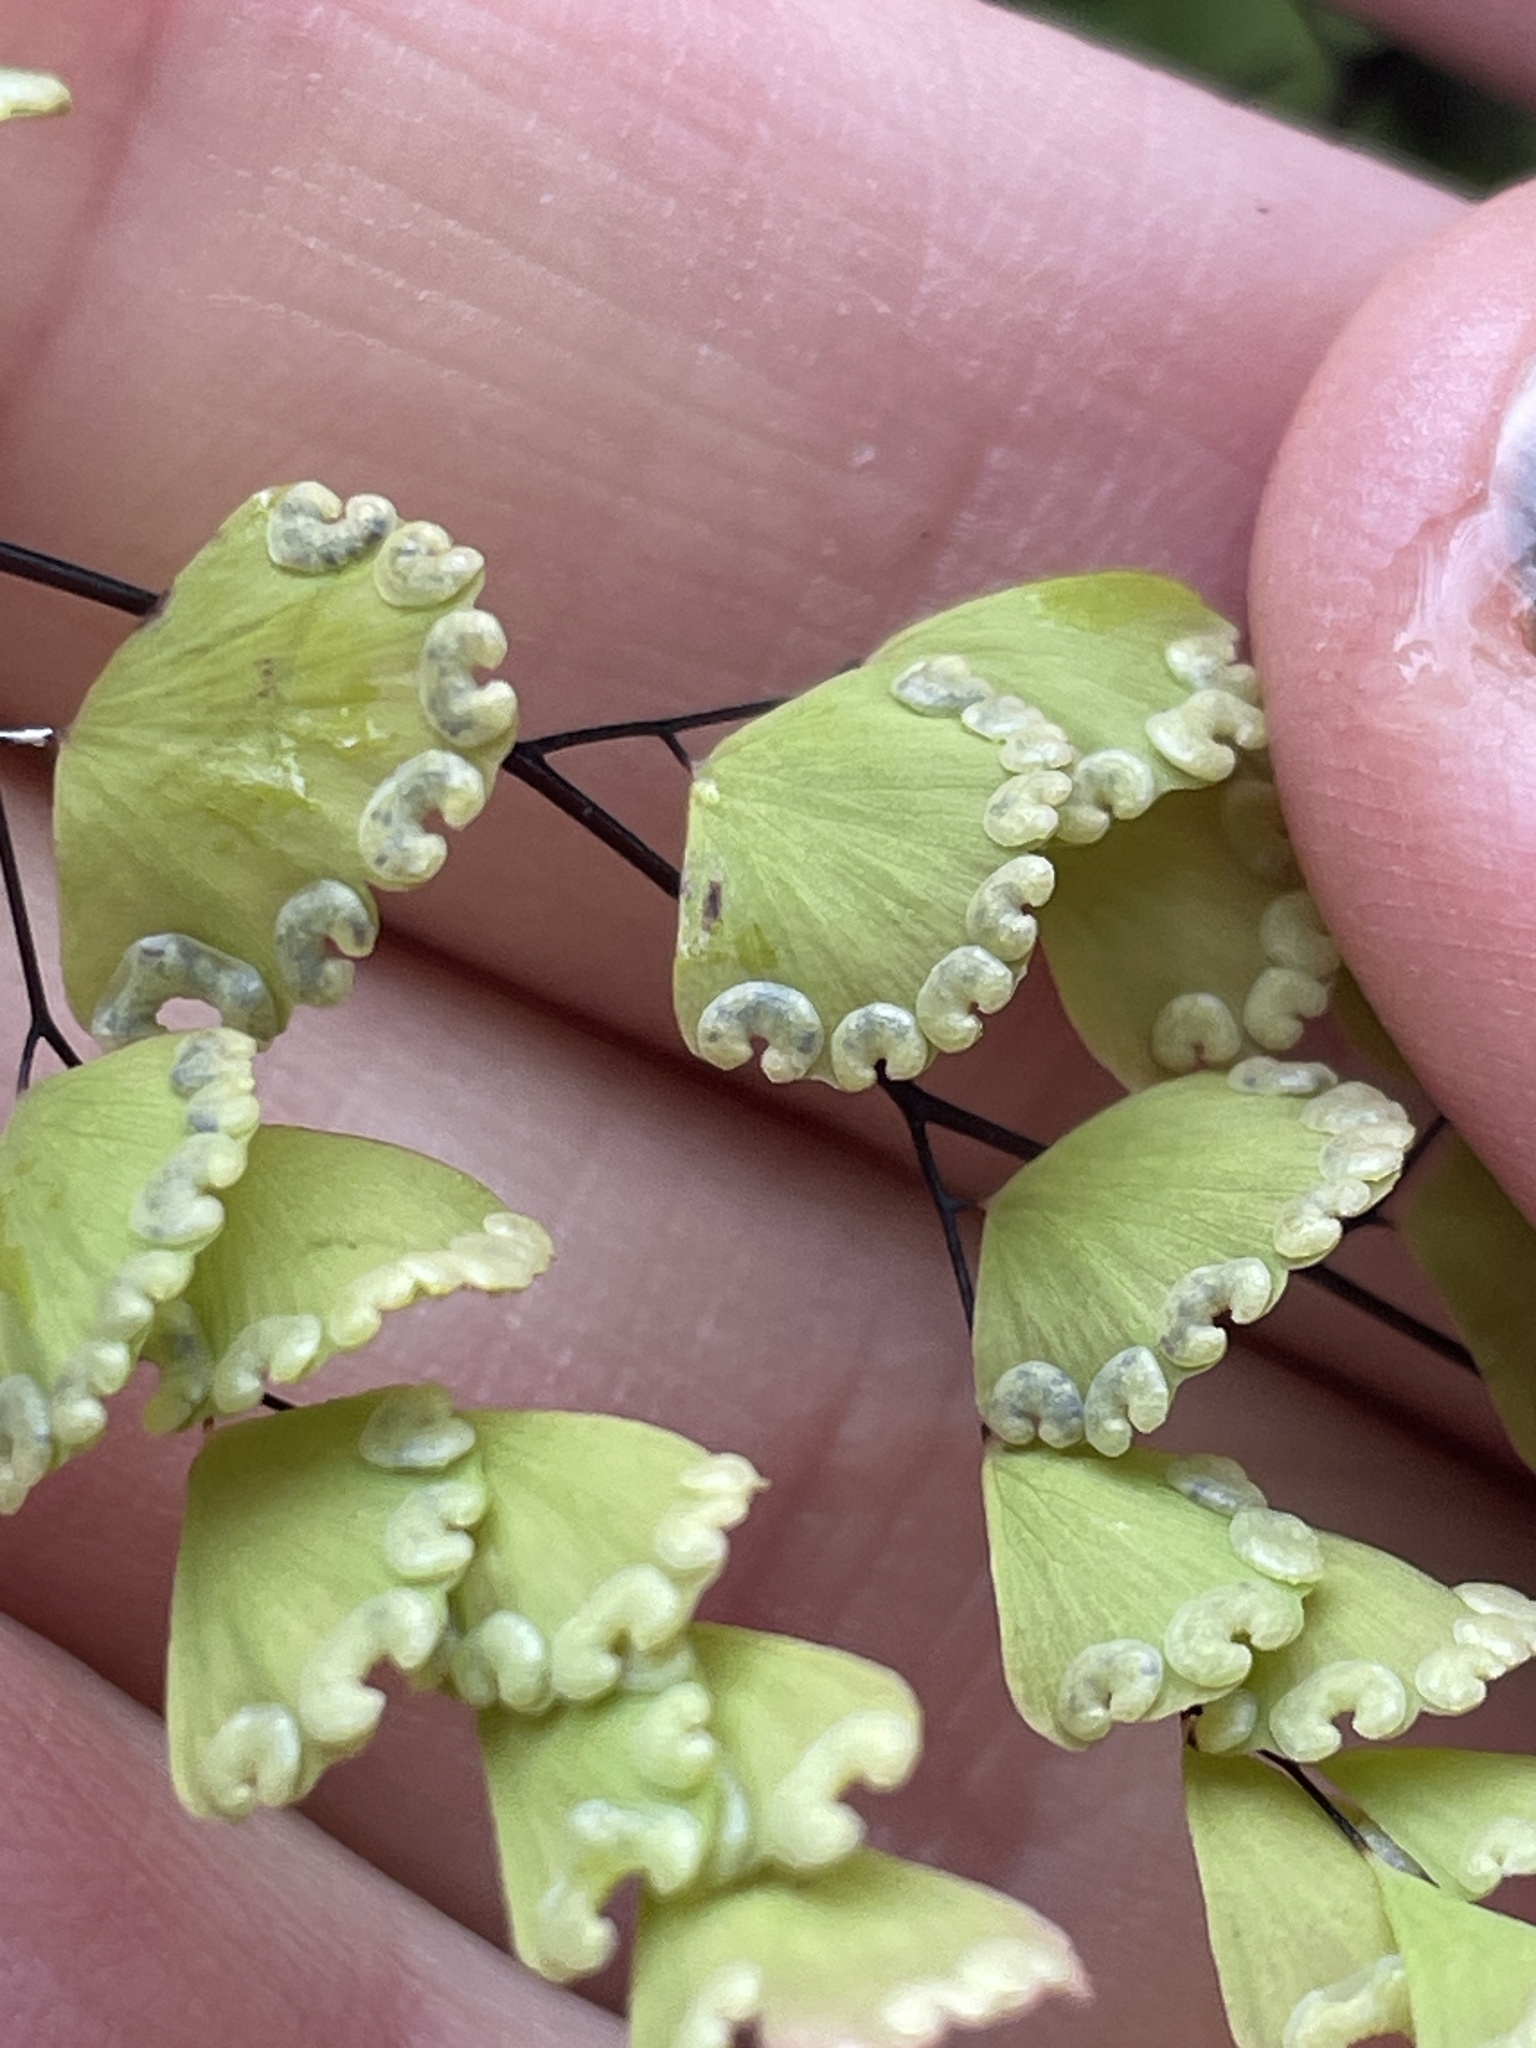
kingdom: Plantae
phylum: Tracheophyta
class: Polypodiopsida
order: Polypodiales
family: Pteridaceae
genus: Adiantum
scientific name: Adiantum orbignyanum
